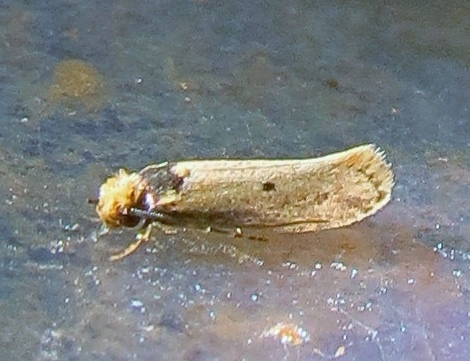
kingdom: Animalia
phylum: Arthropoda
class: Insecta
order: Lepidoptera
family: Tineidae
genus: Tinea
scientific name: Tinea apicimaculella
